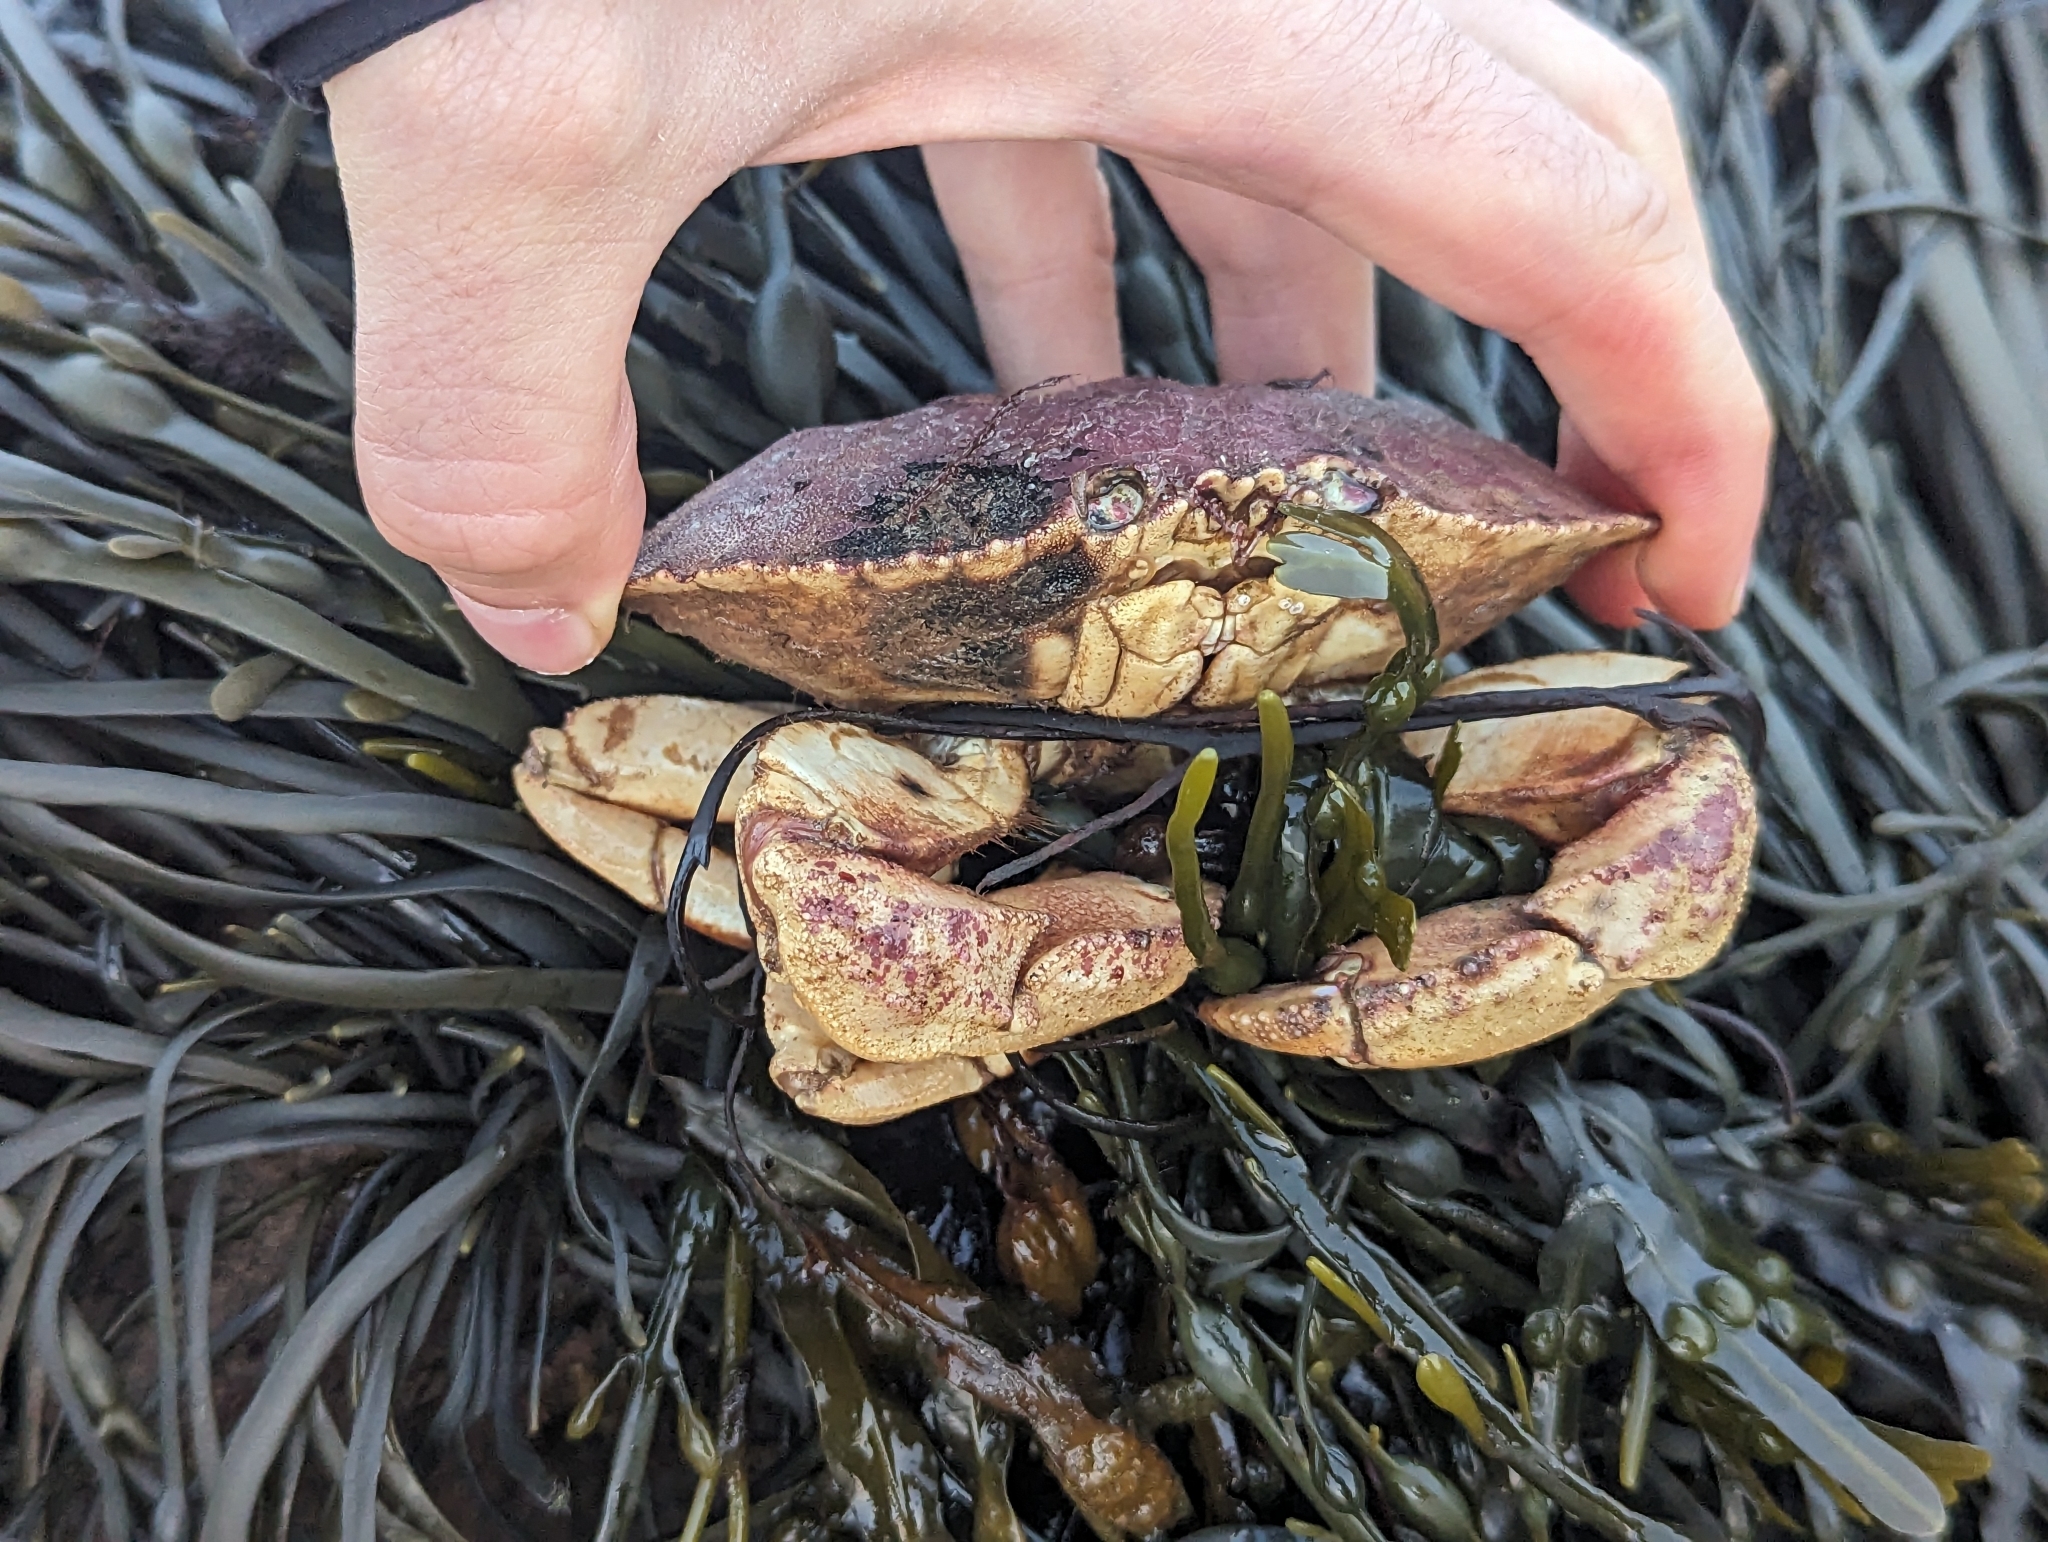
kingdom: Animalia
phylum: Arthropoda
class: Malacostraca
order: Decapoda
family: Cancridae
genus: Cancer
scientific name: Cancer borealis
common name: Jonah crab
